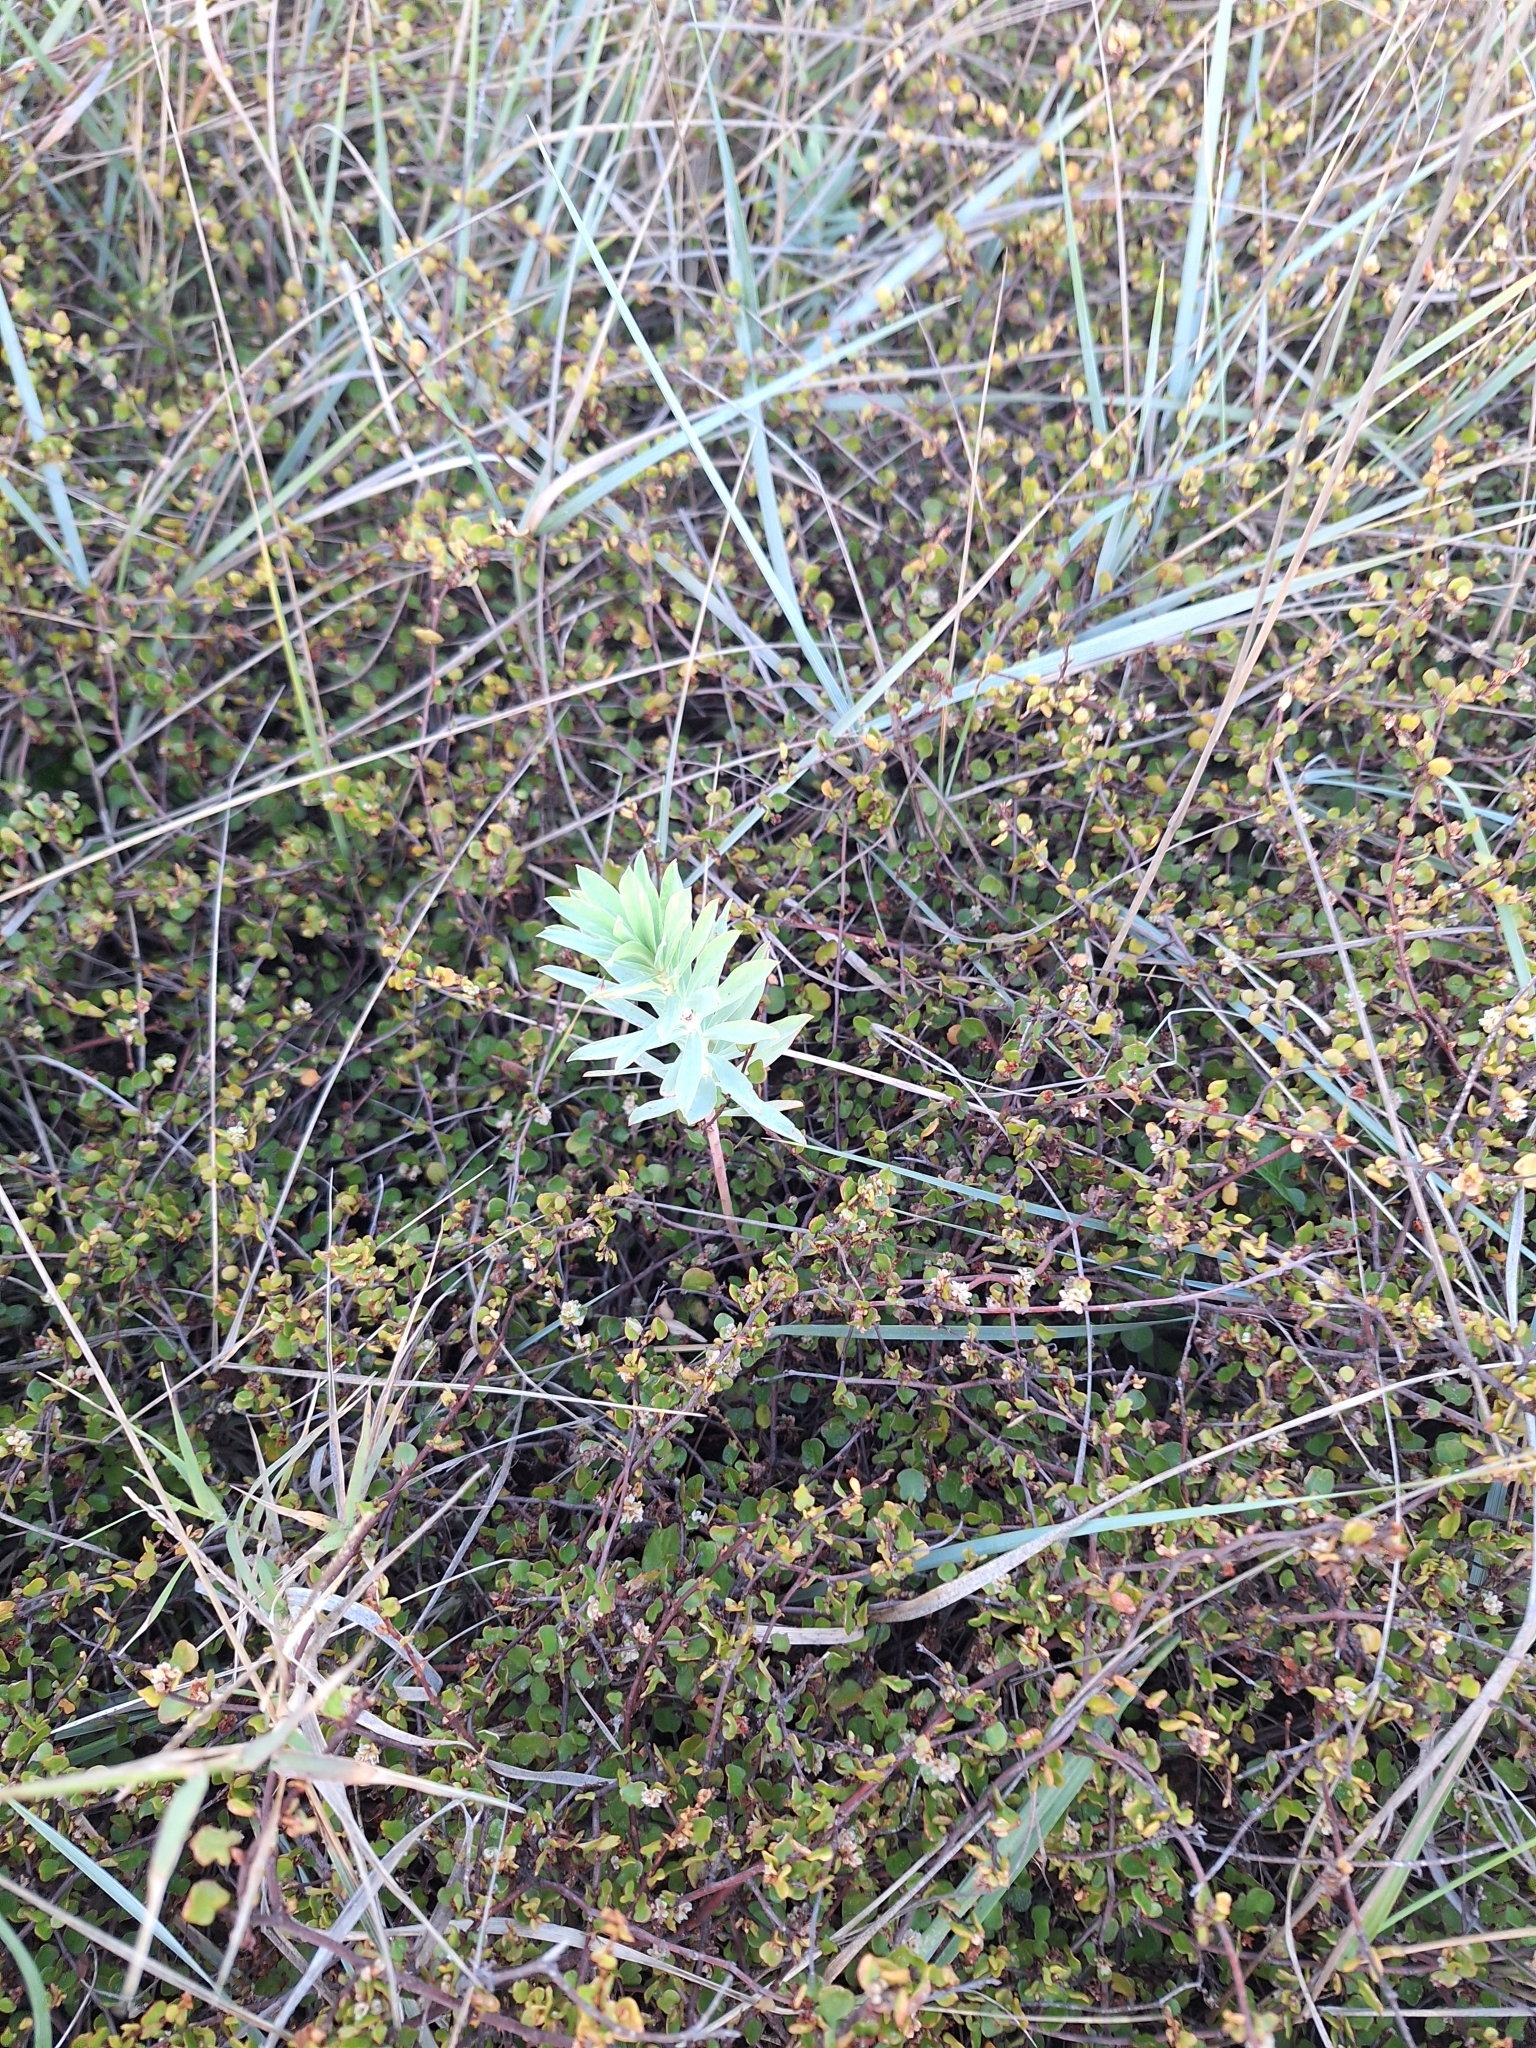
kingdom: Plantae
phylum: Tracheophyta
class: Magnoliopsida
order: Malpighiales
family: Euphorbiaceae
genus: Euphorbia
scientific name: Euphorbia glauca
